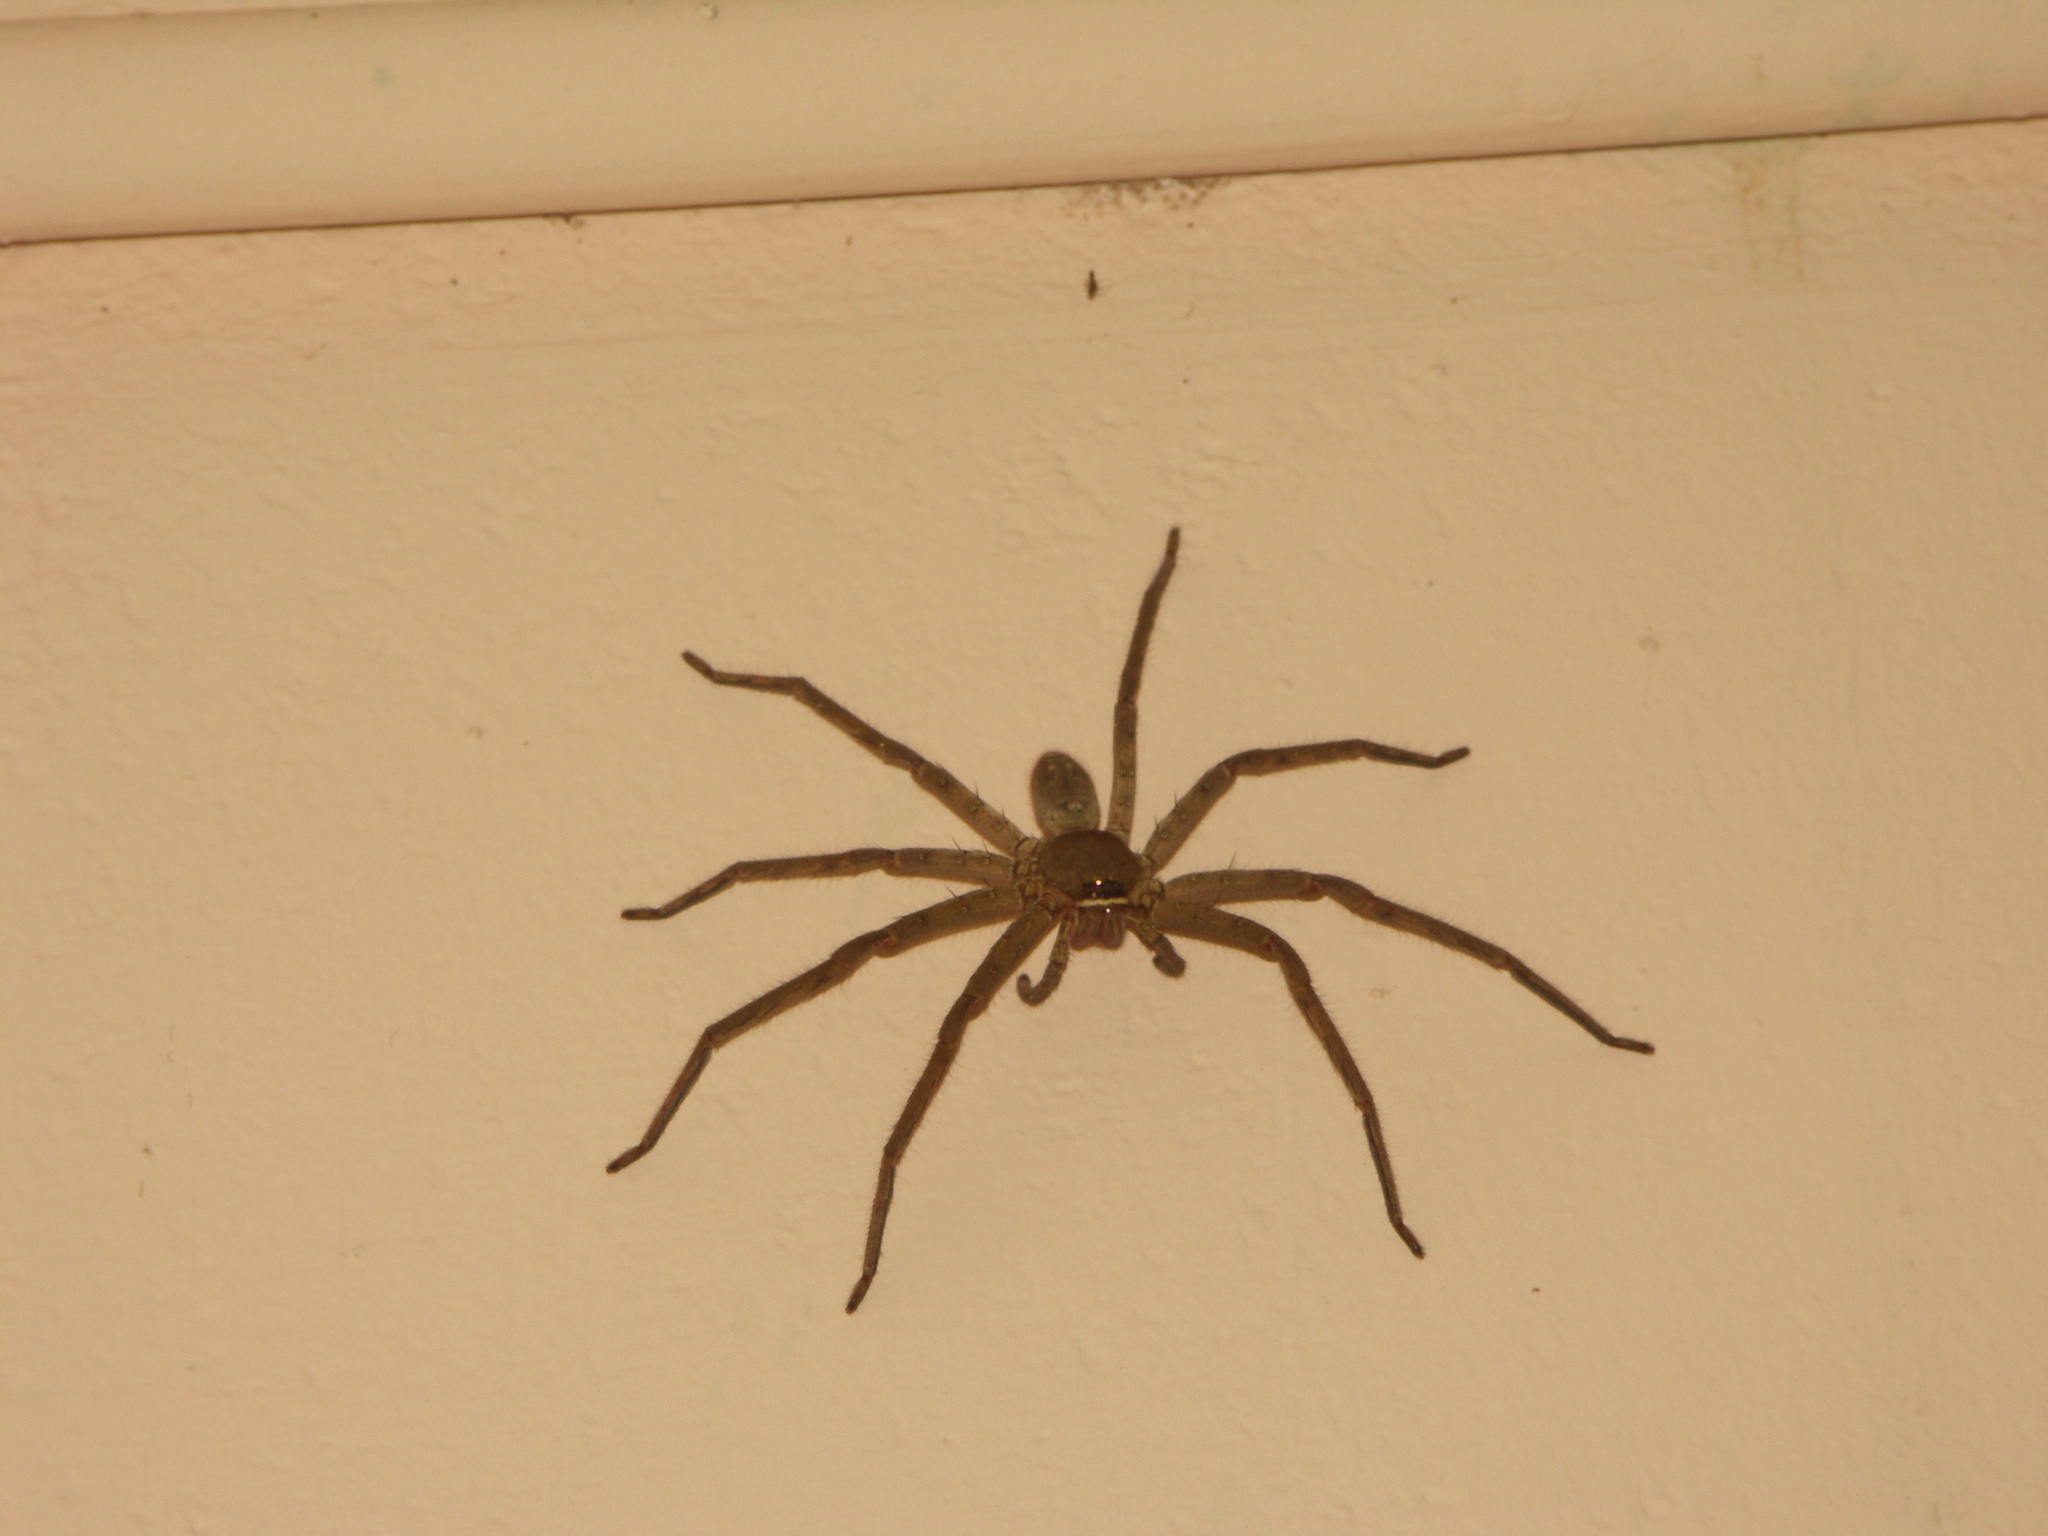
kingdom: Animalia
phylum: Arthropoda
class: Arachnida
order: Araneae
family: Sparassidae
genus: Heteropoda
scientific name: Heteropoda venatoria
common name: Huntsman spider
